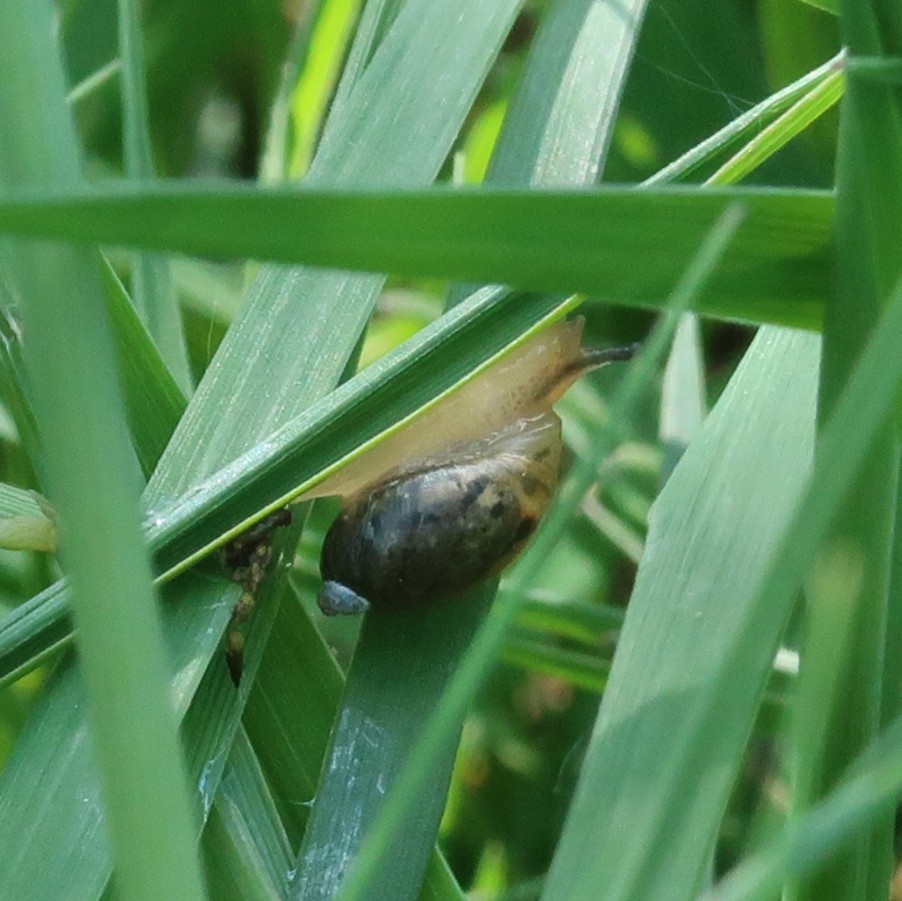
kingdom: Animalia
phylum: Mollusca
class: Gastropoda
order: Stylommatophora
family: Succineidae
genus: Succinea
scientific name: Succinea putris
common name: European ambersnail
